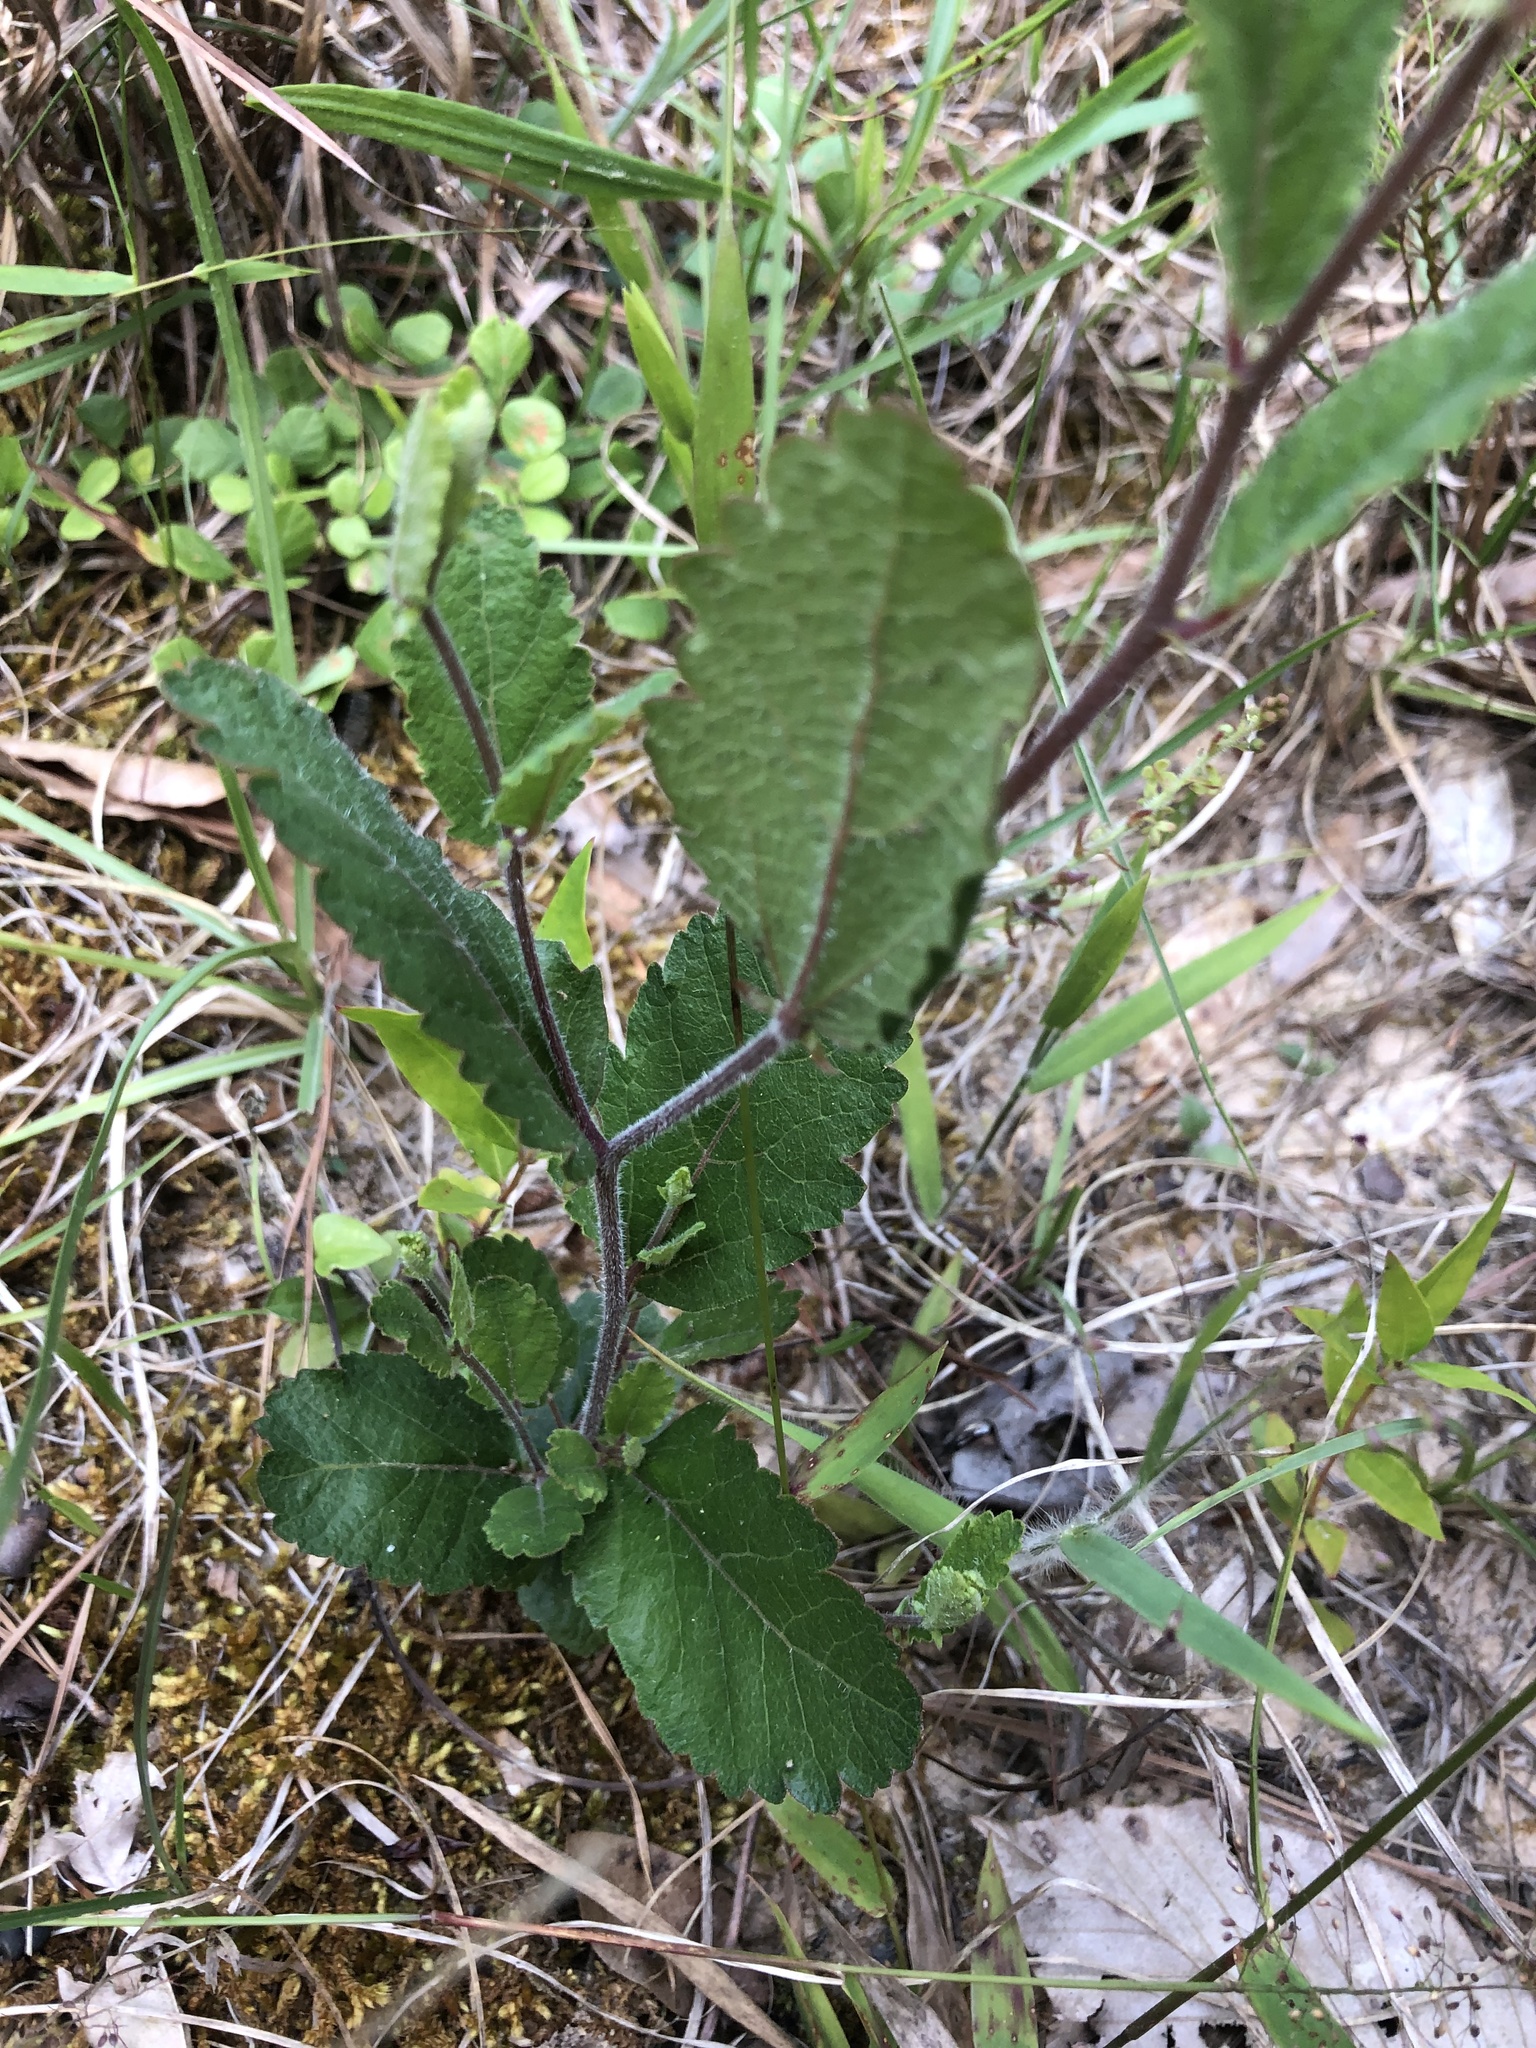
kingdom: Plantae
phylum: Tracheophyta
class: Magnoliopsida
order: Malpighiales
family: Euphorbiaceae
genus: Tragia
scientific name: Tragia smallii
